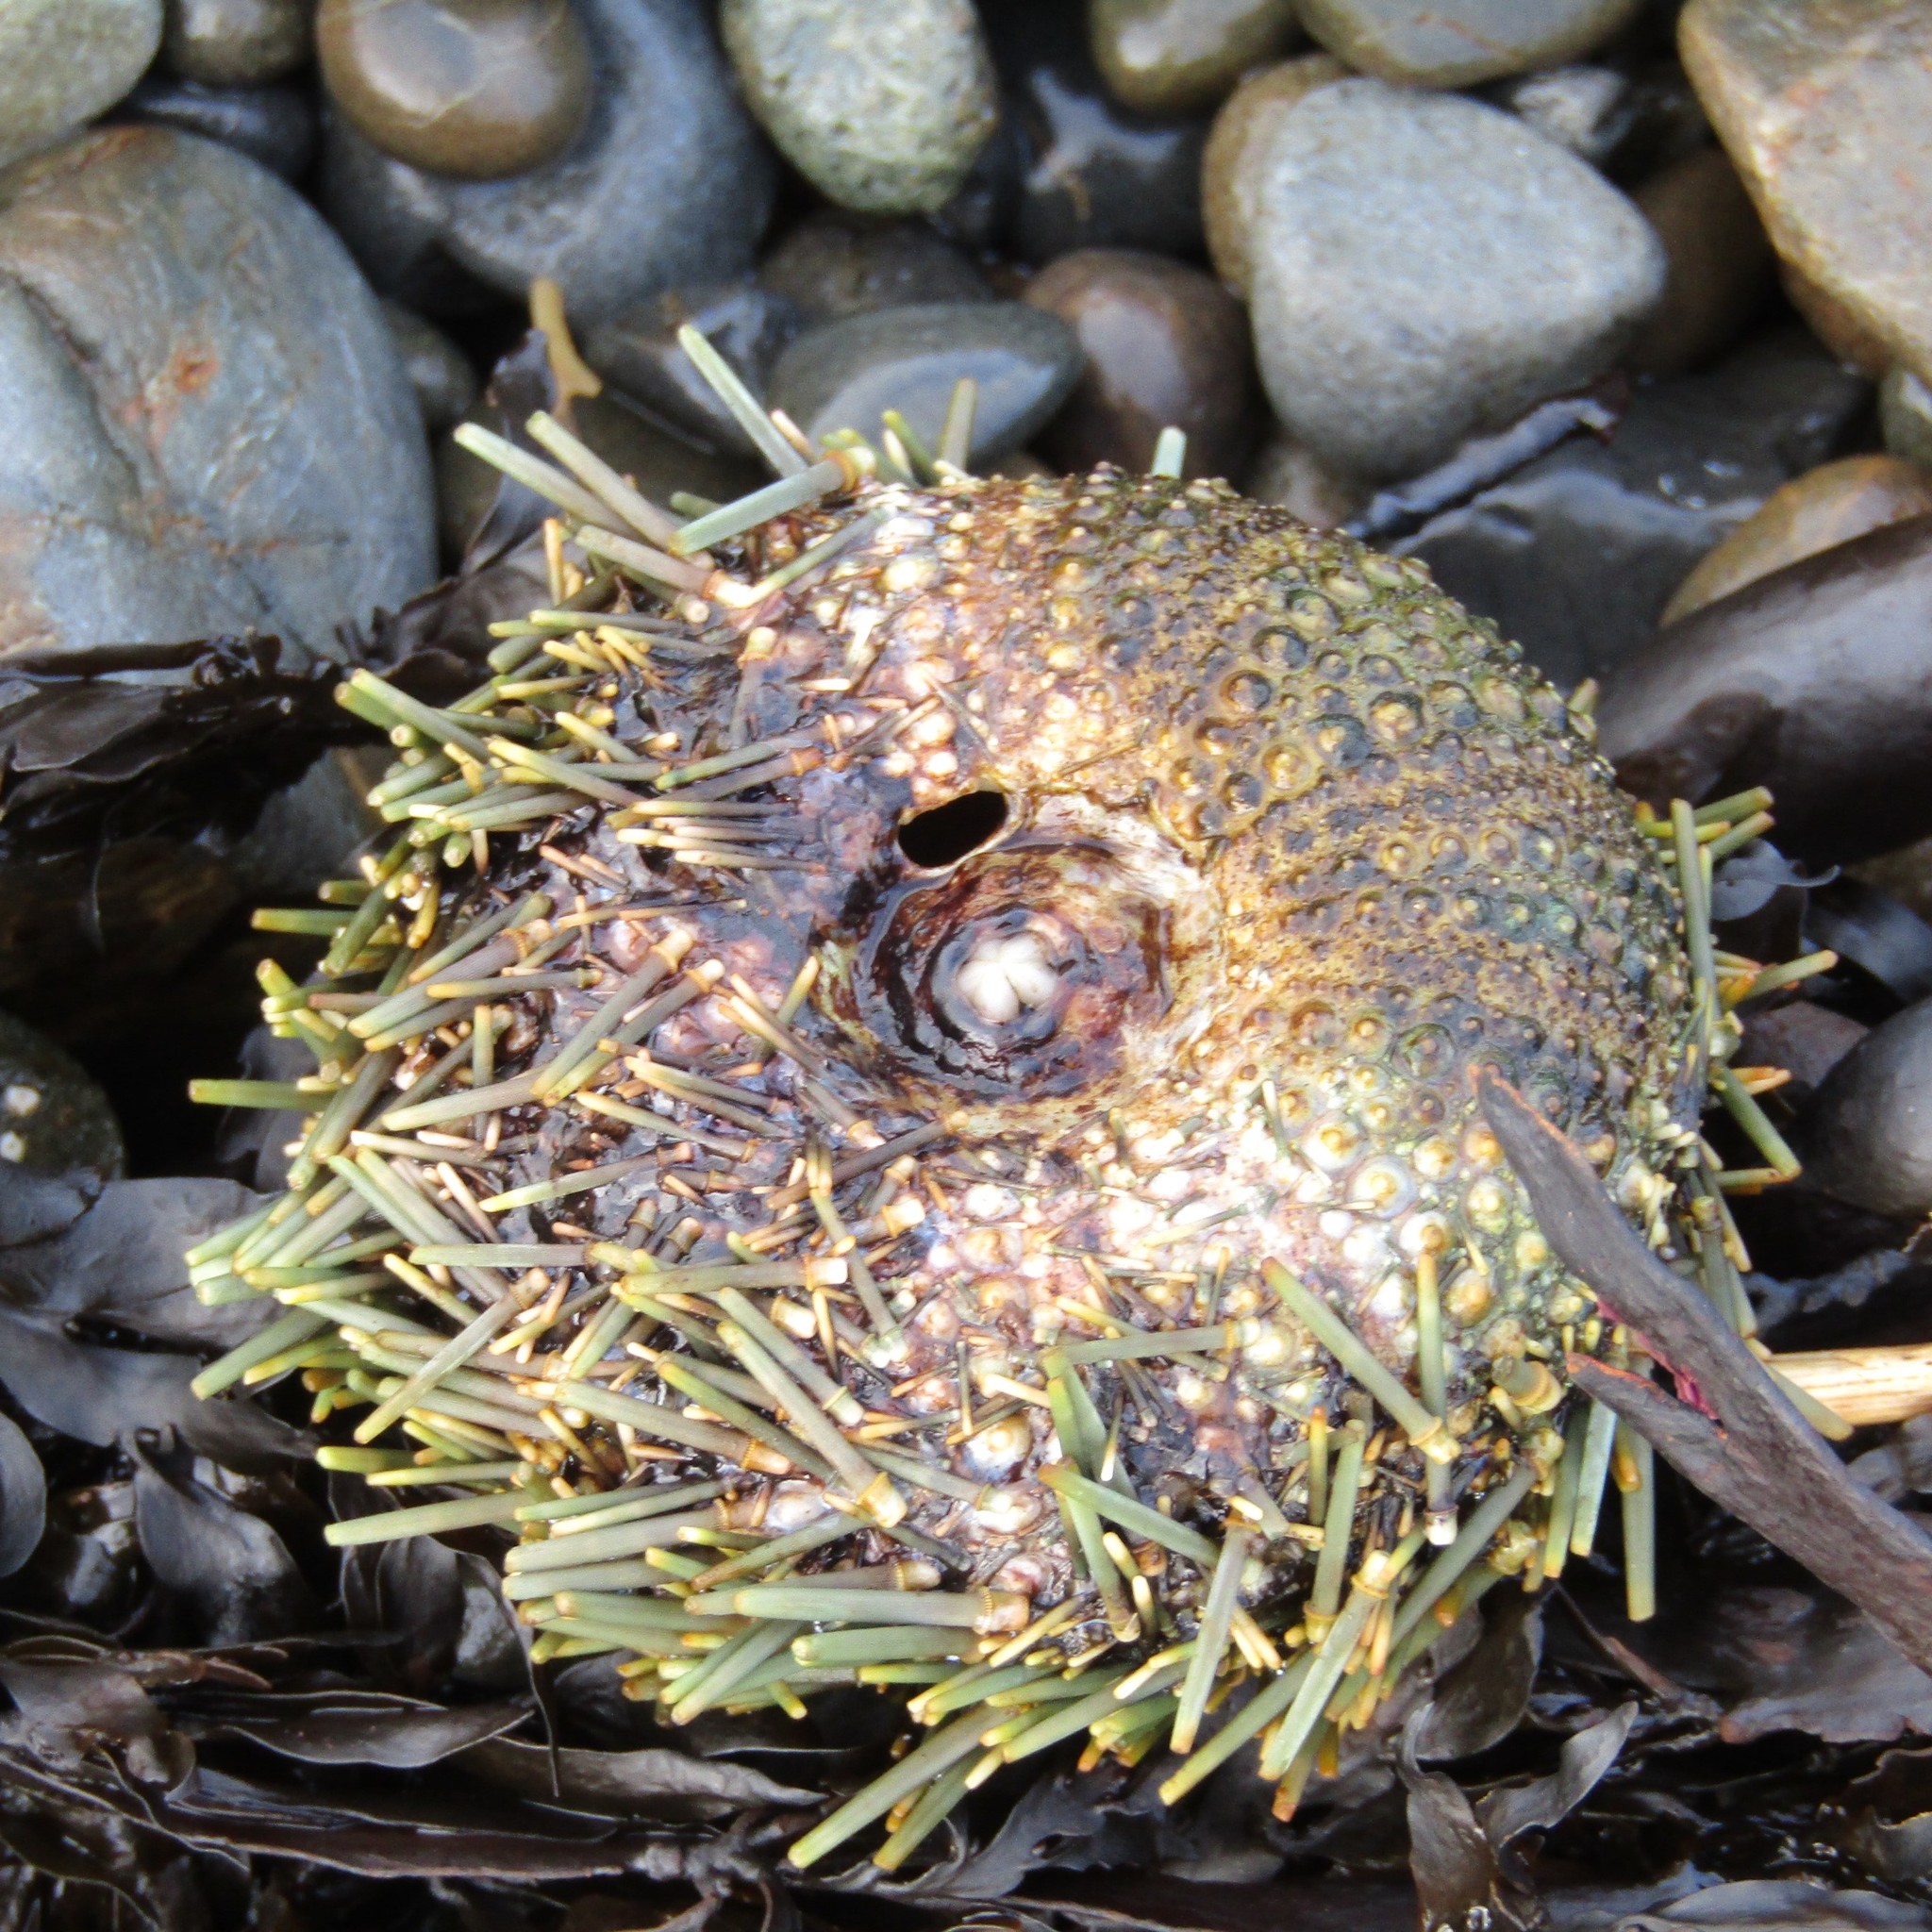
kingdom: Animalia
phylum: Echinodermata
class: Echinoidea
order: Camarodonta
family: Echinometridae
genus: Evechinus
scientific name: Evechinus chloroticus
